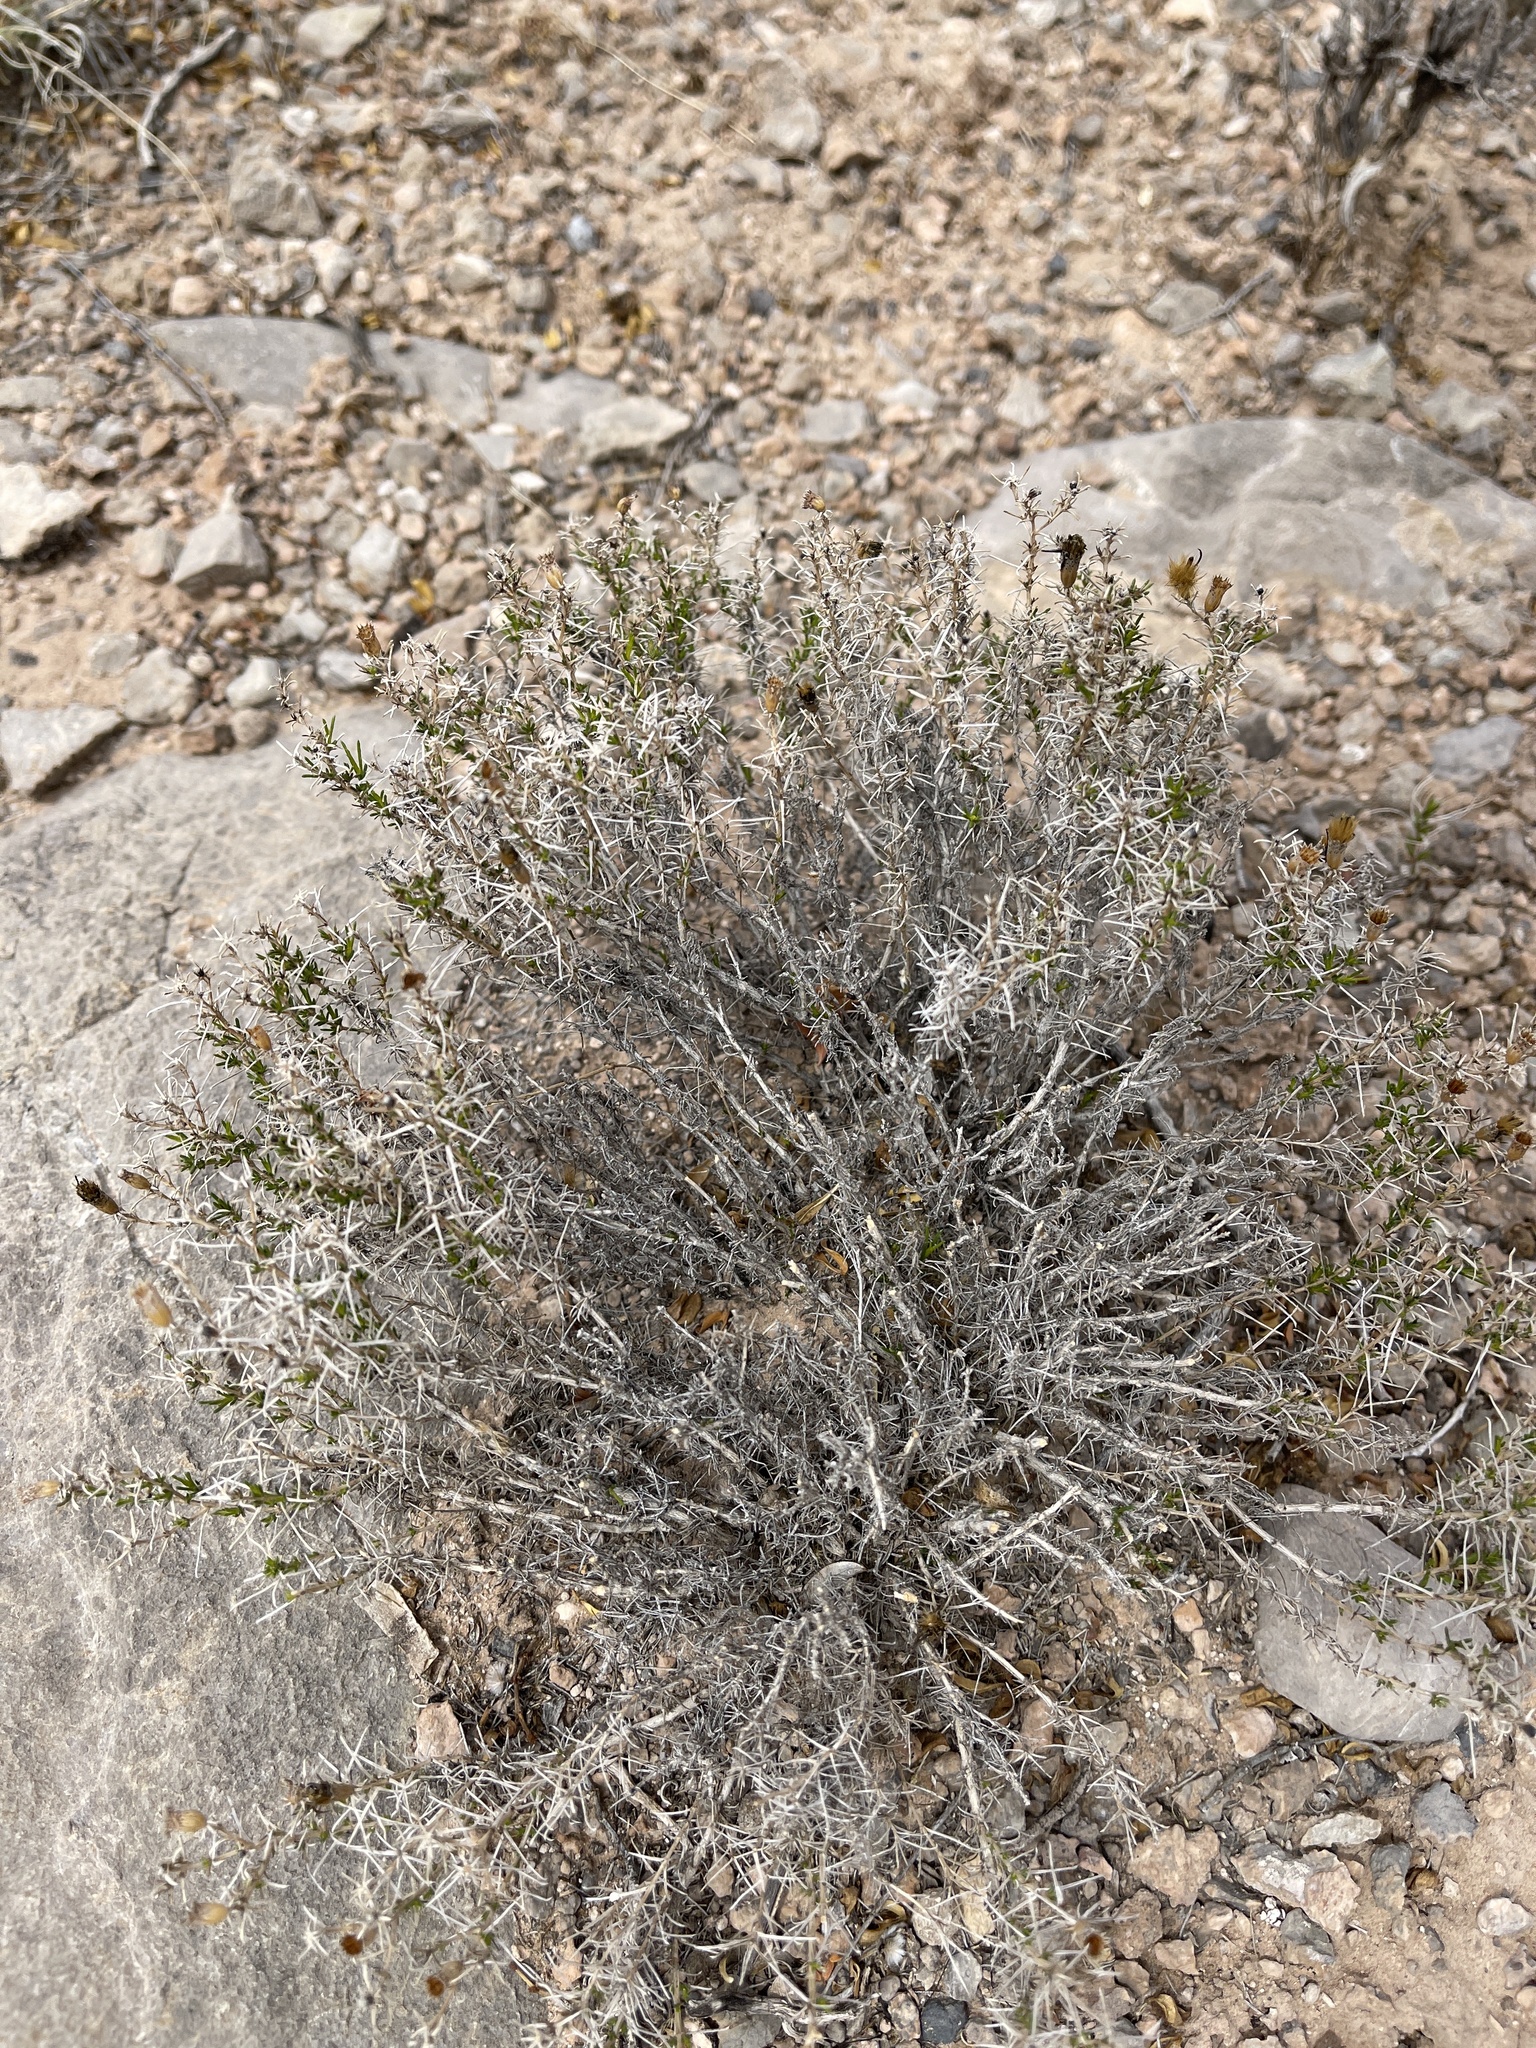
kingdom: Plantae
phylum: Tracheophyta
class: Magnoliopsida
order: Asterales
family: Asteraceae
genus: Thymophylla
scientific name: Thymophylla acerosa
